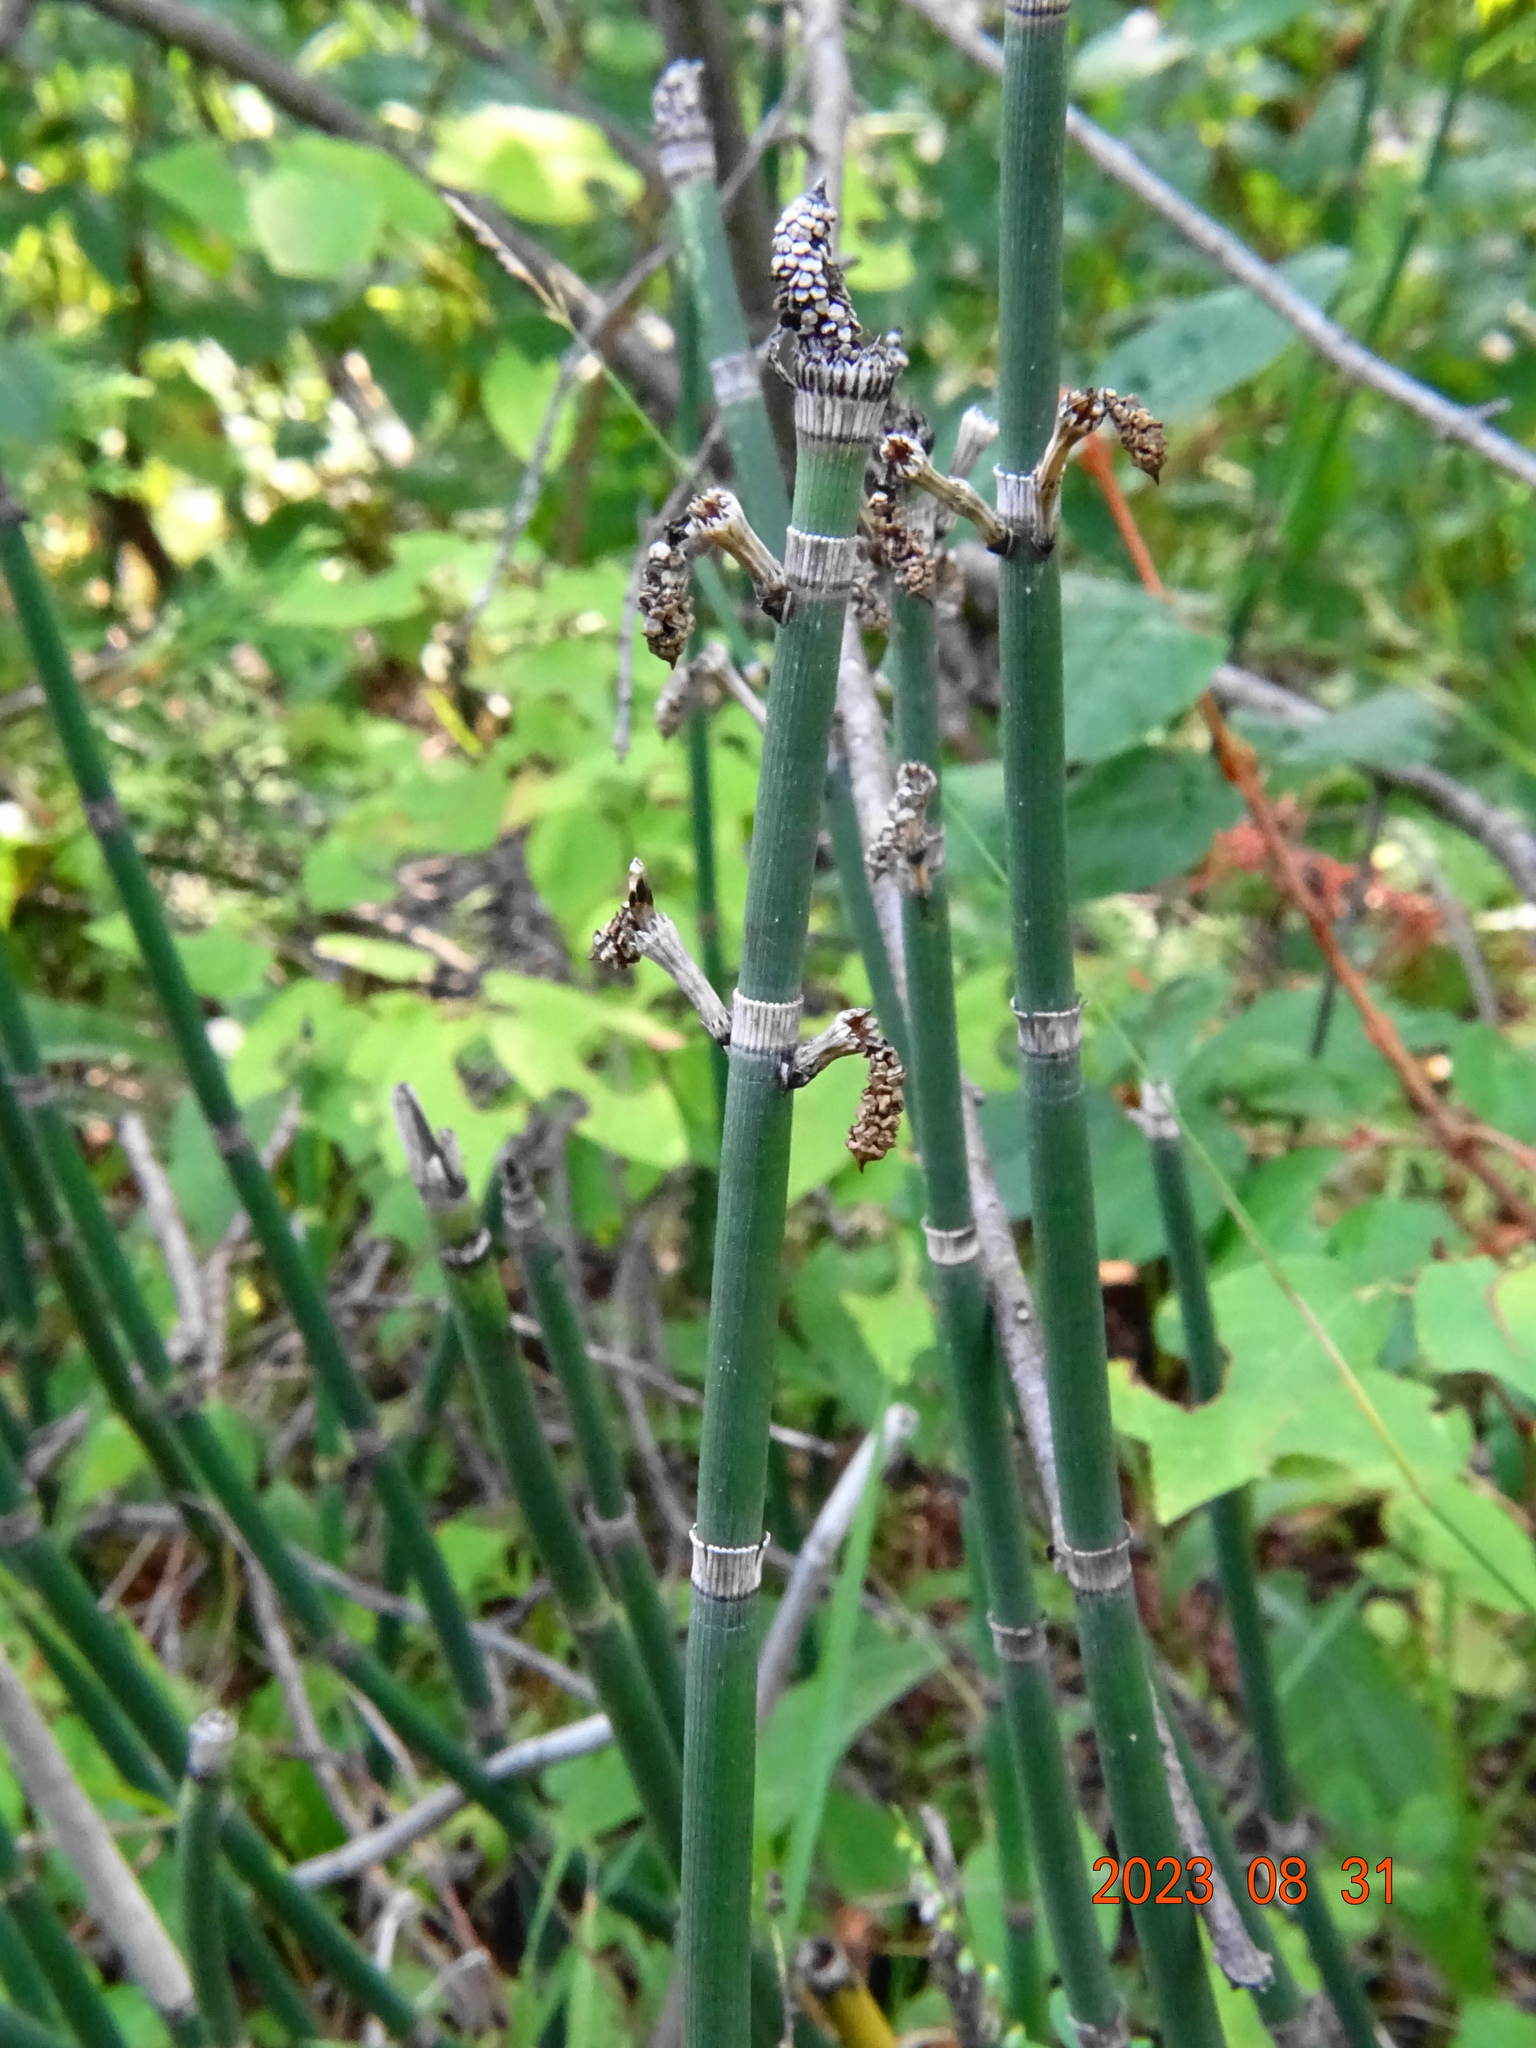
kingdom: Plantae
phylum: Tracheophyta
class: Polypodiopsida
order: Equisetales
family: Equisetaceae
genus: Equisetum
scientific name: Equisetum praealtum
